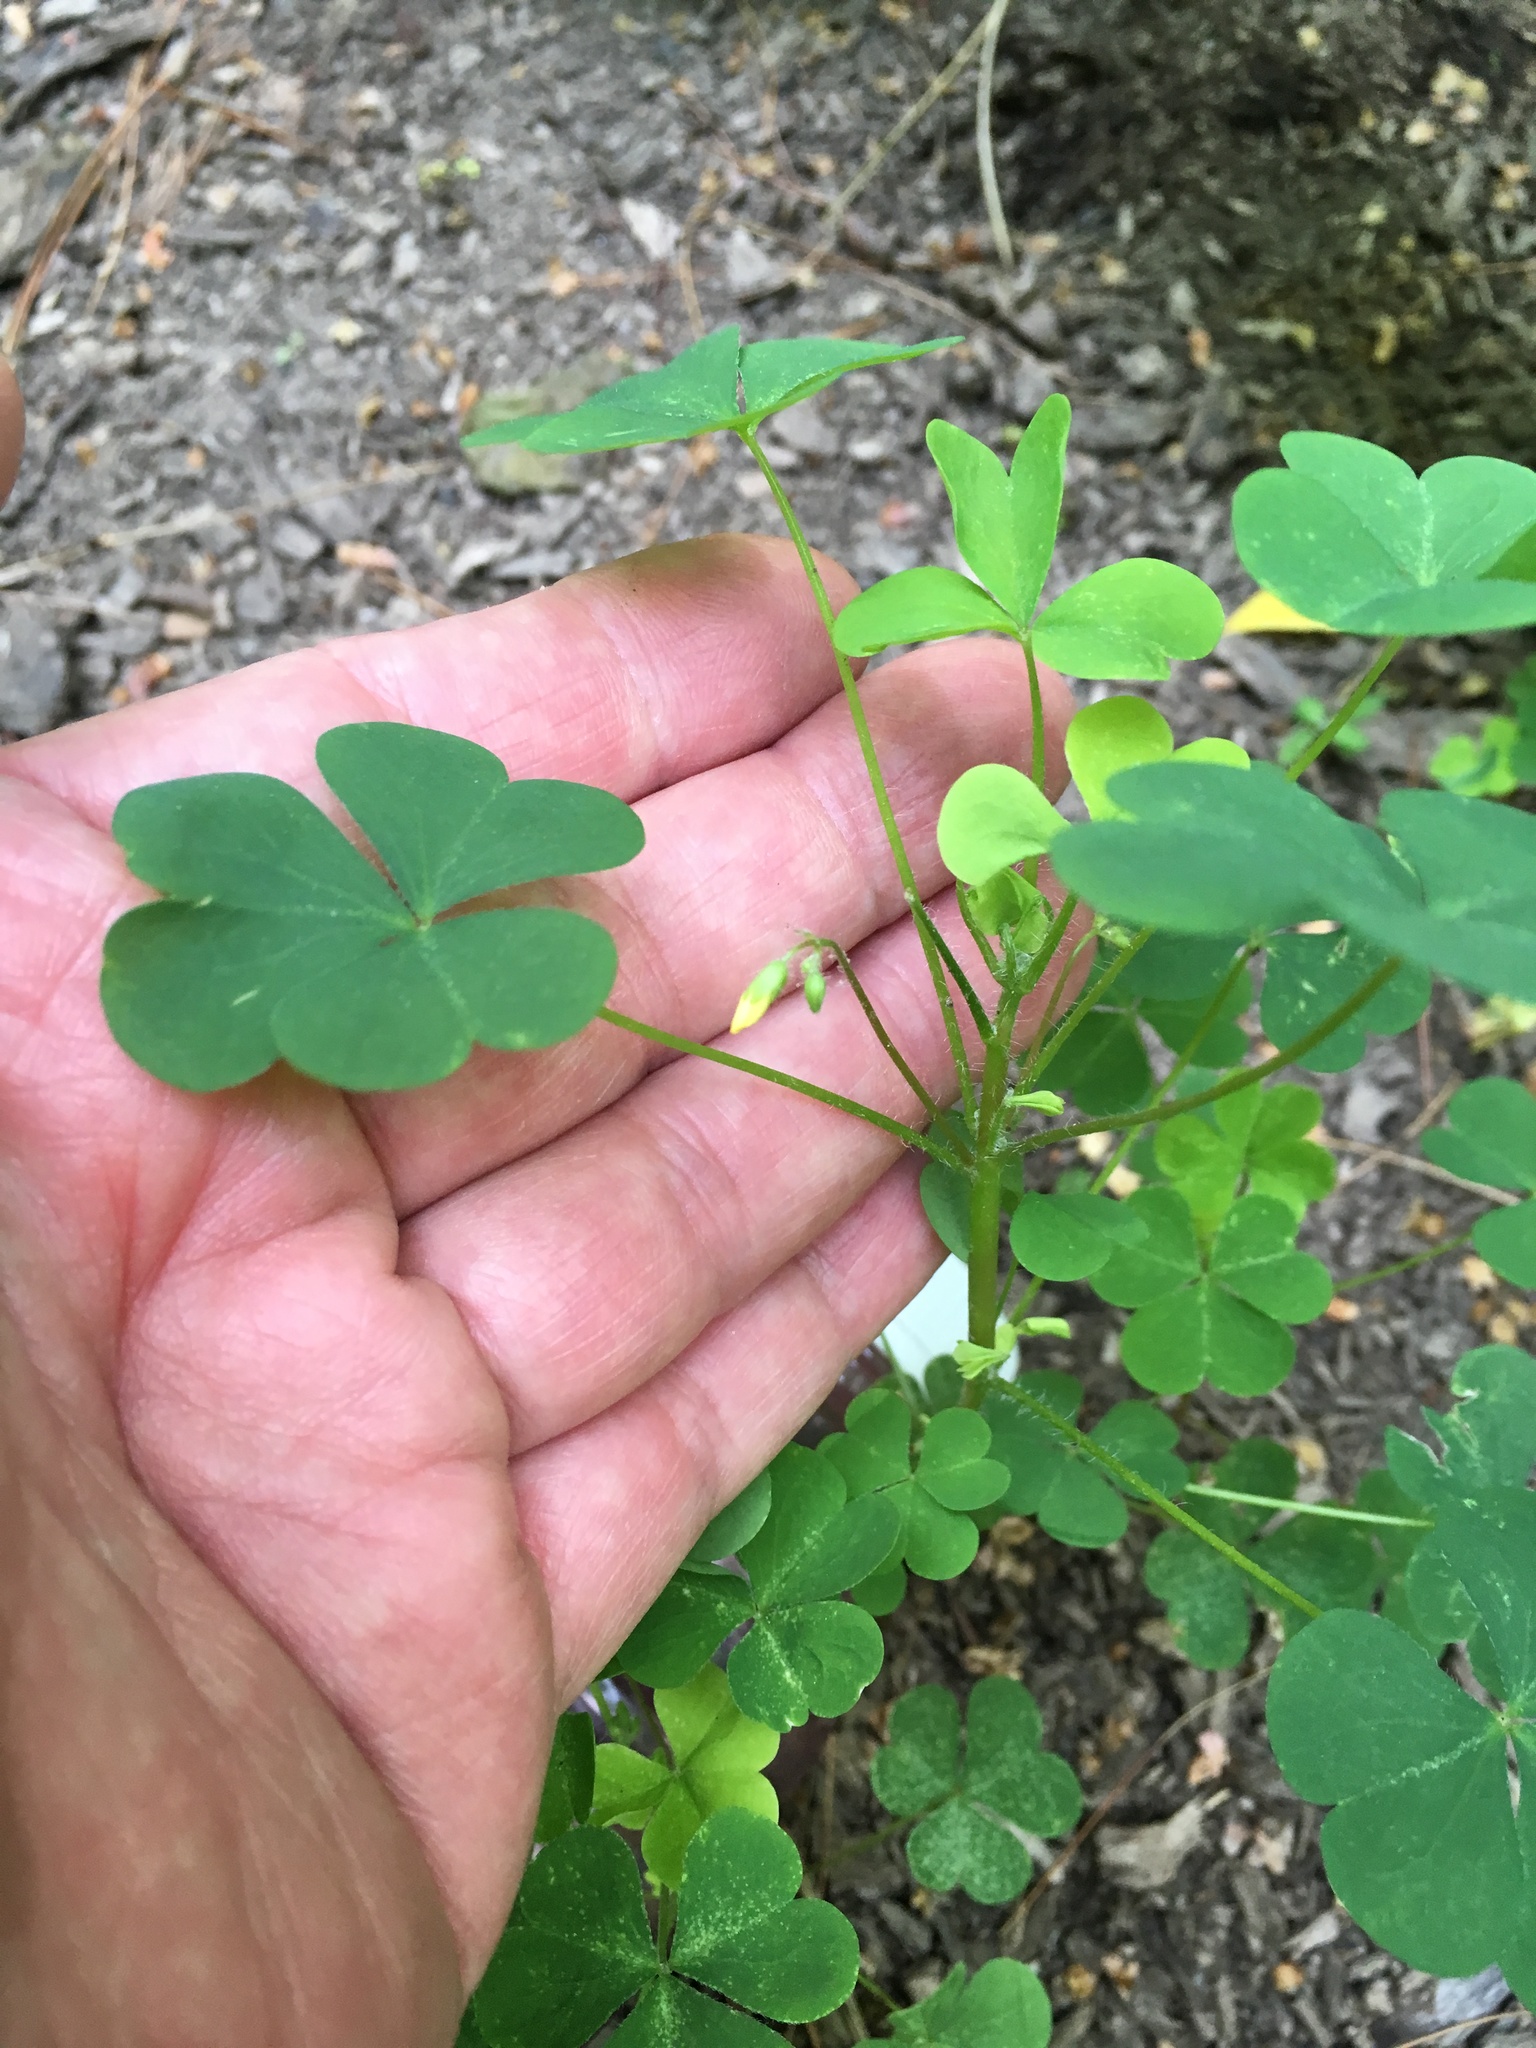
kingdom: Plantae
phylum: Tracheophyta
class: Magnoliopsida
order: Oxalidales
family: Oxalidaceae
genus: Oxalis
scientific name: Oxalis stricta
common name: Upright yellow-sorrel
